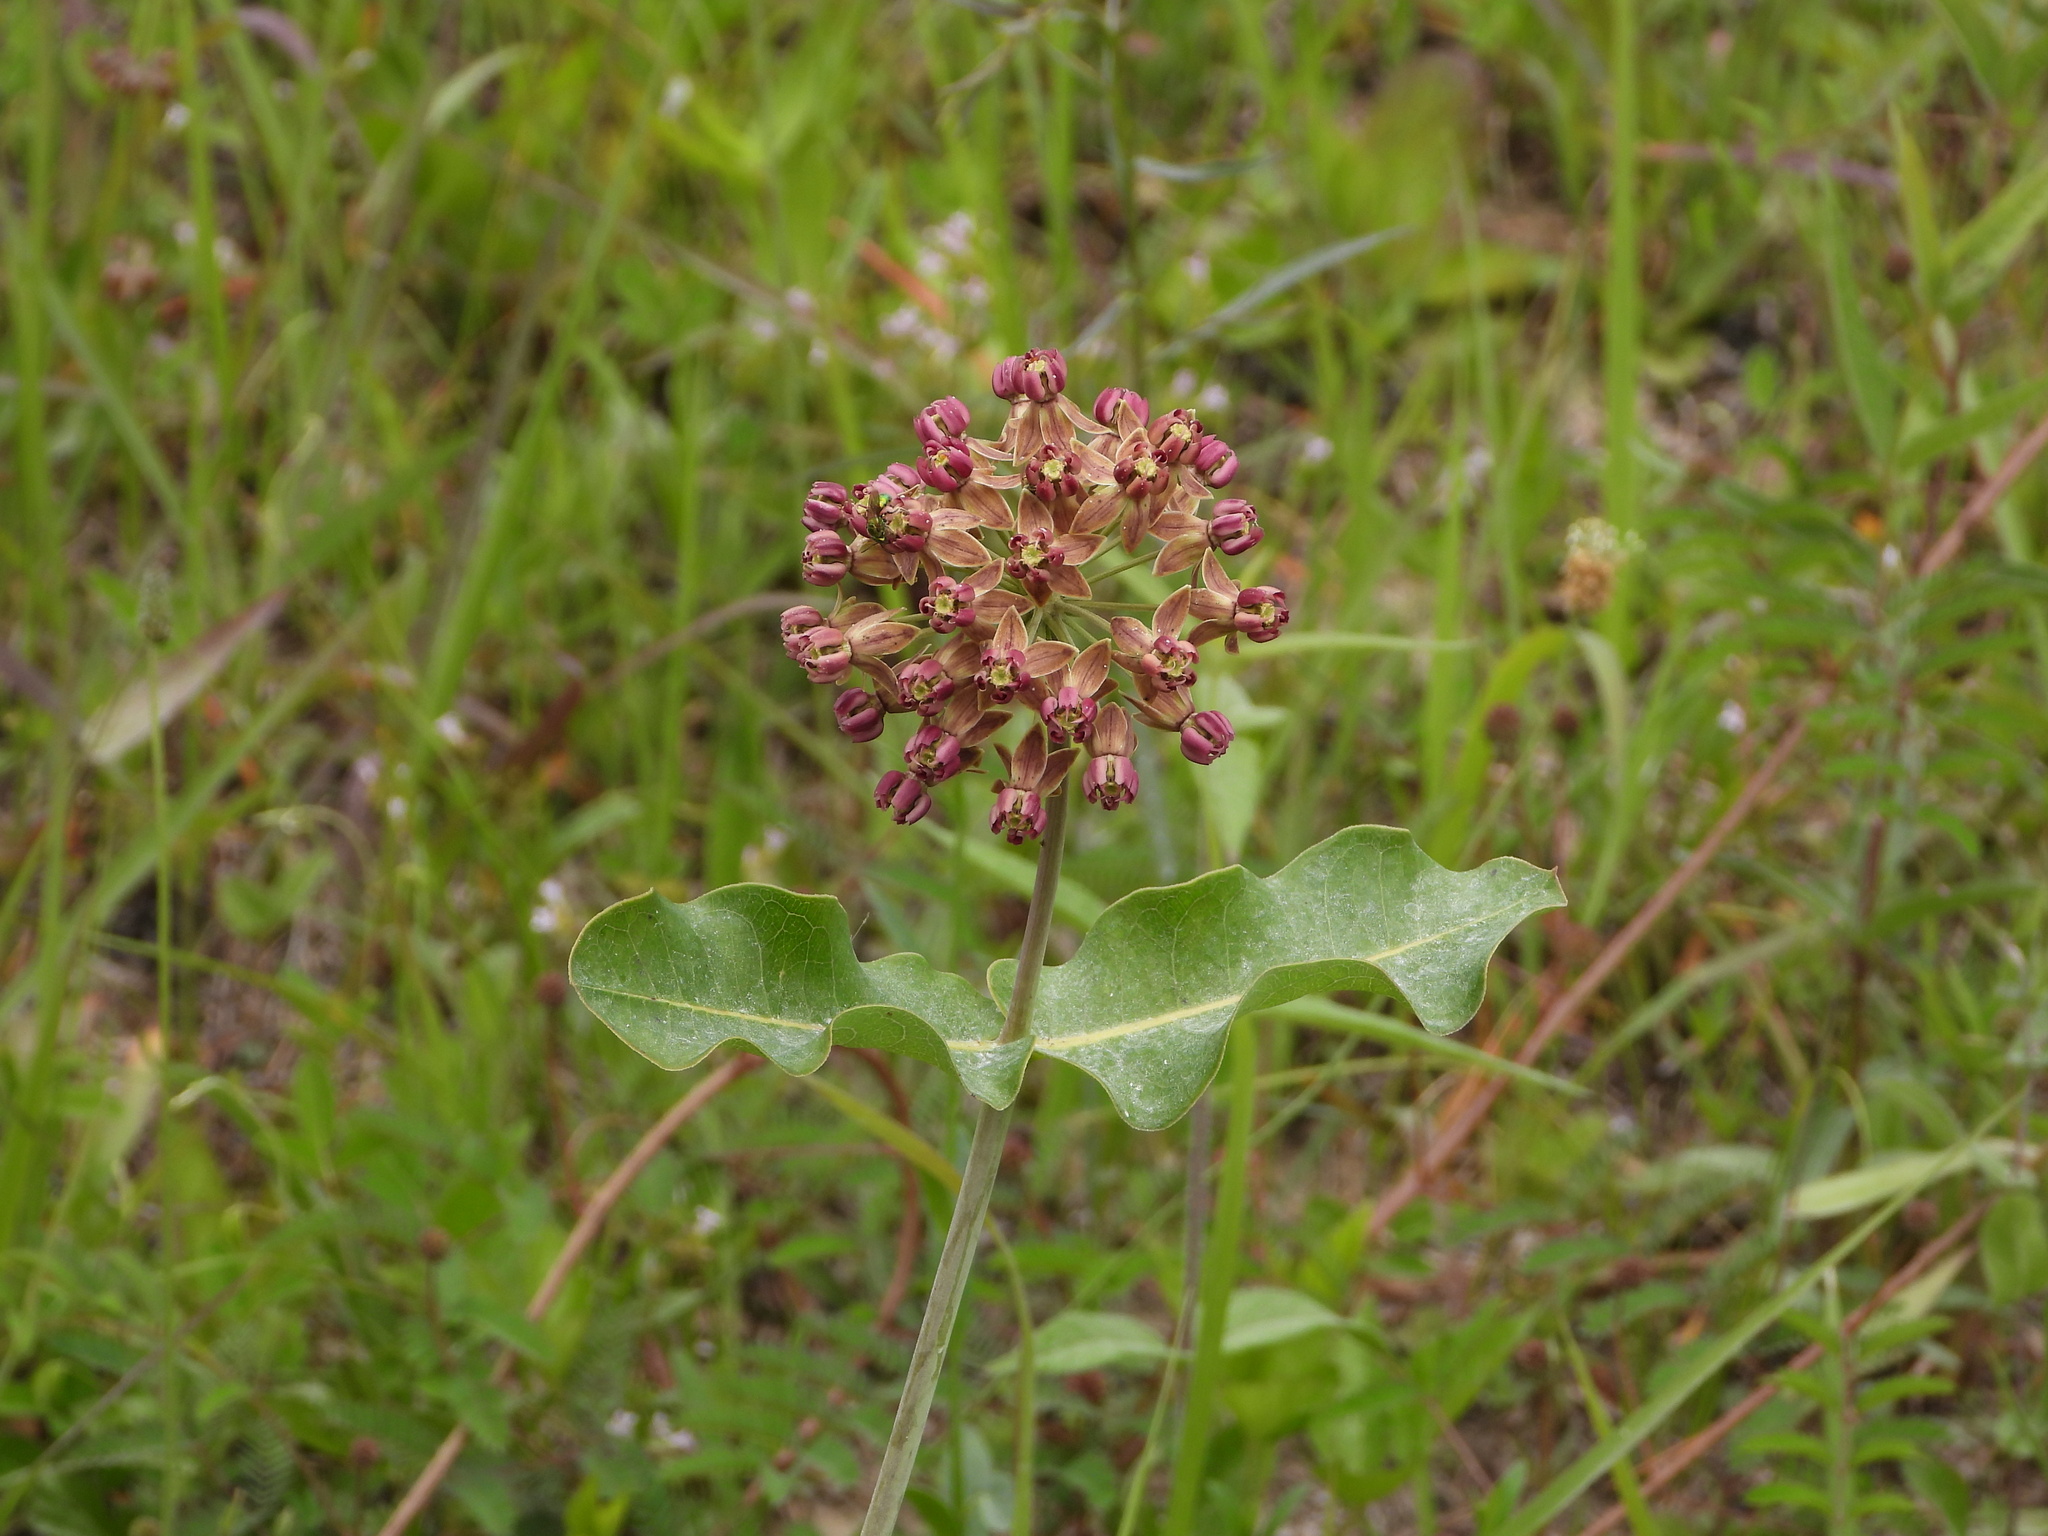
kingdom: Plantae
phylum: Tracheophyta
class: Magnoliopsida
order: Gentianales
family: Apocynaceae
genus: Asclepias
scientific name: Asclepias amplexicaulis
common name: Blunt-leaf milkweed
